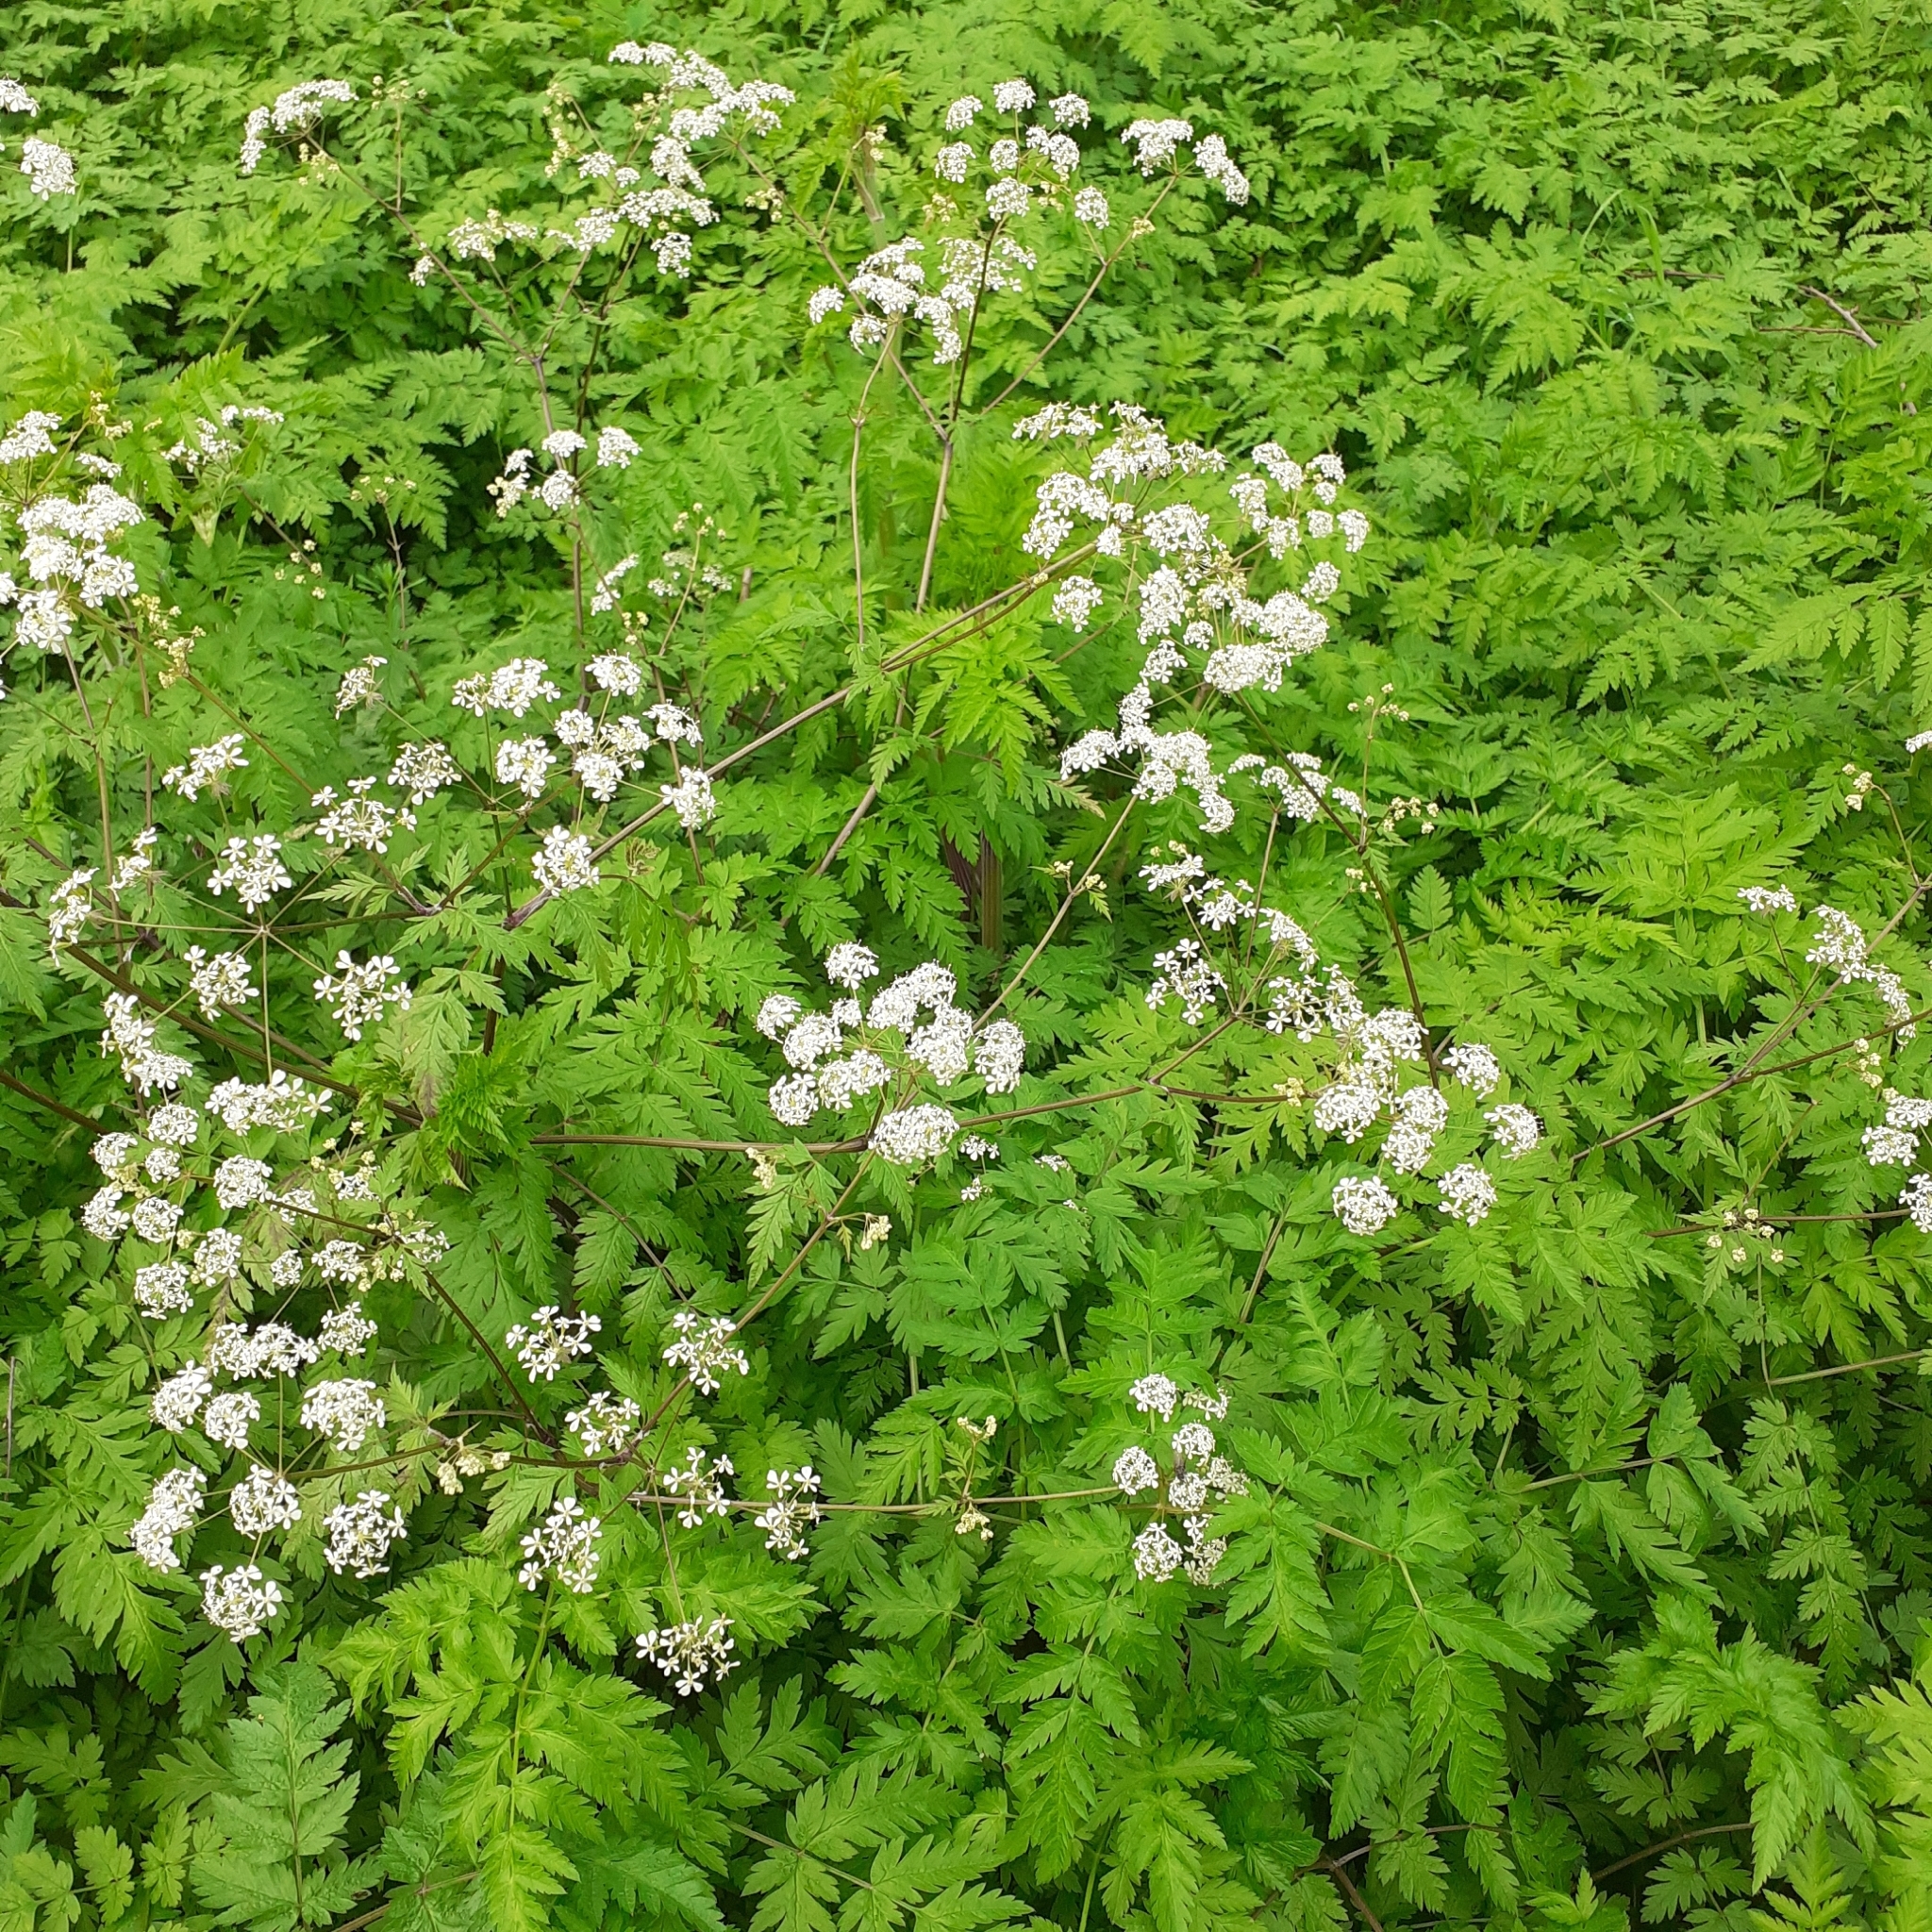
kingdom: Plantae
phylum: Tracheophyta
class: Magnoliopsida
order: Apiales
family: Apiaceae
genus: Anthriscus
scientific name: Anthriscus sylvestris
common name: Cow parsley
